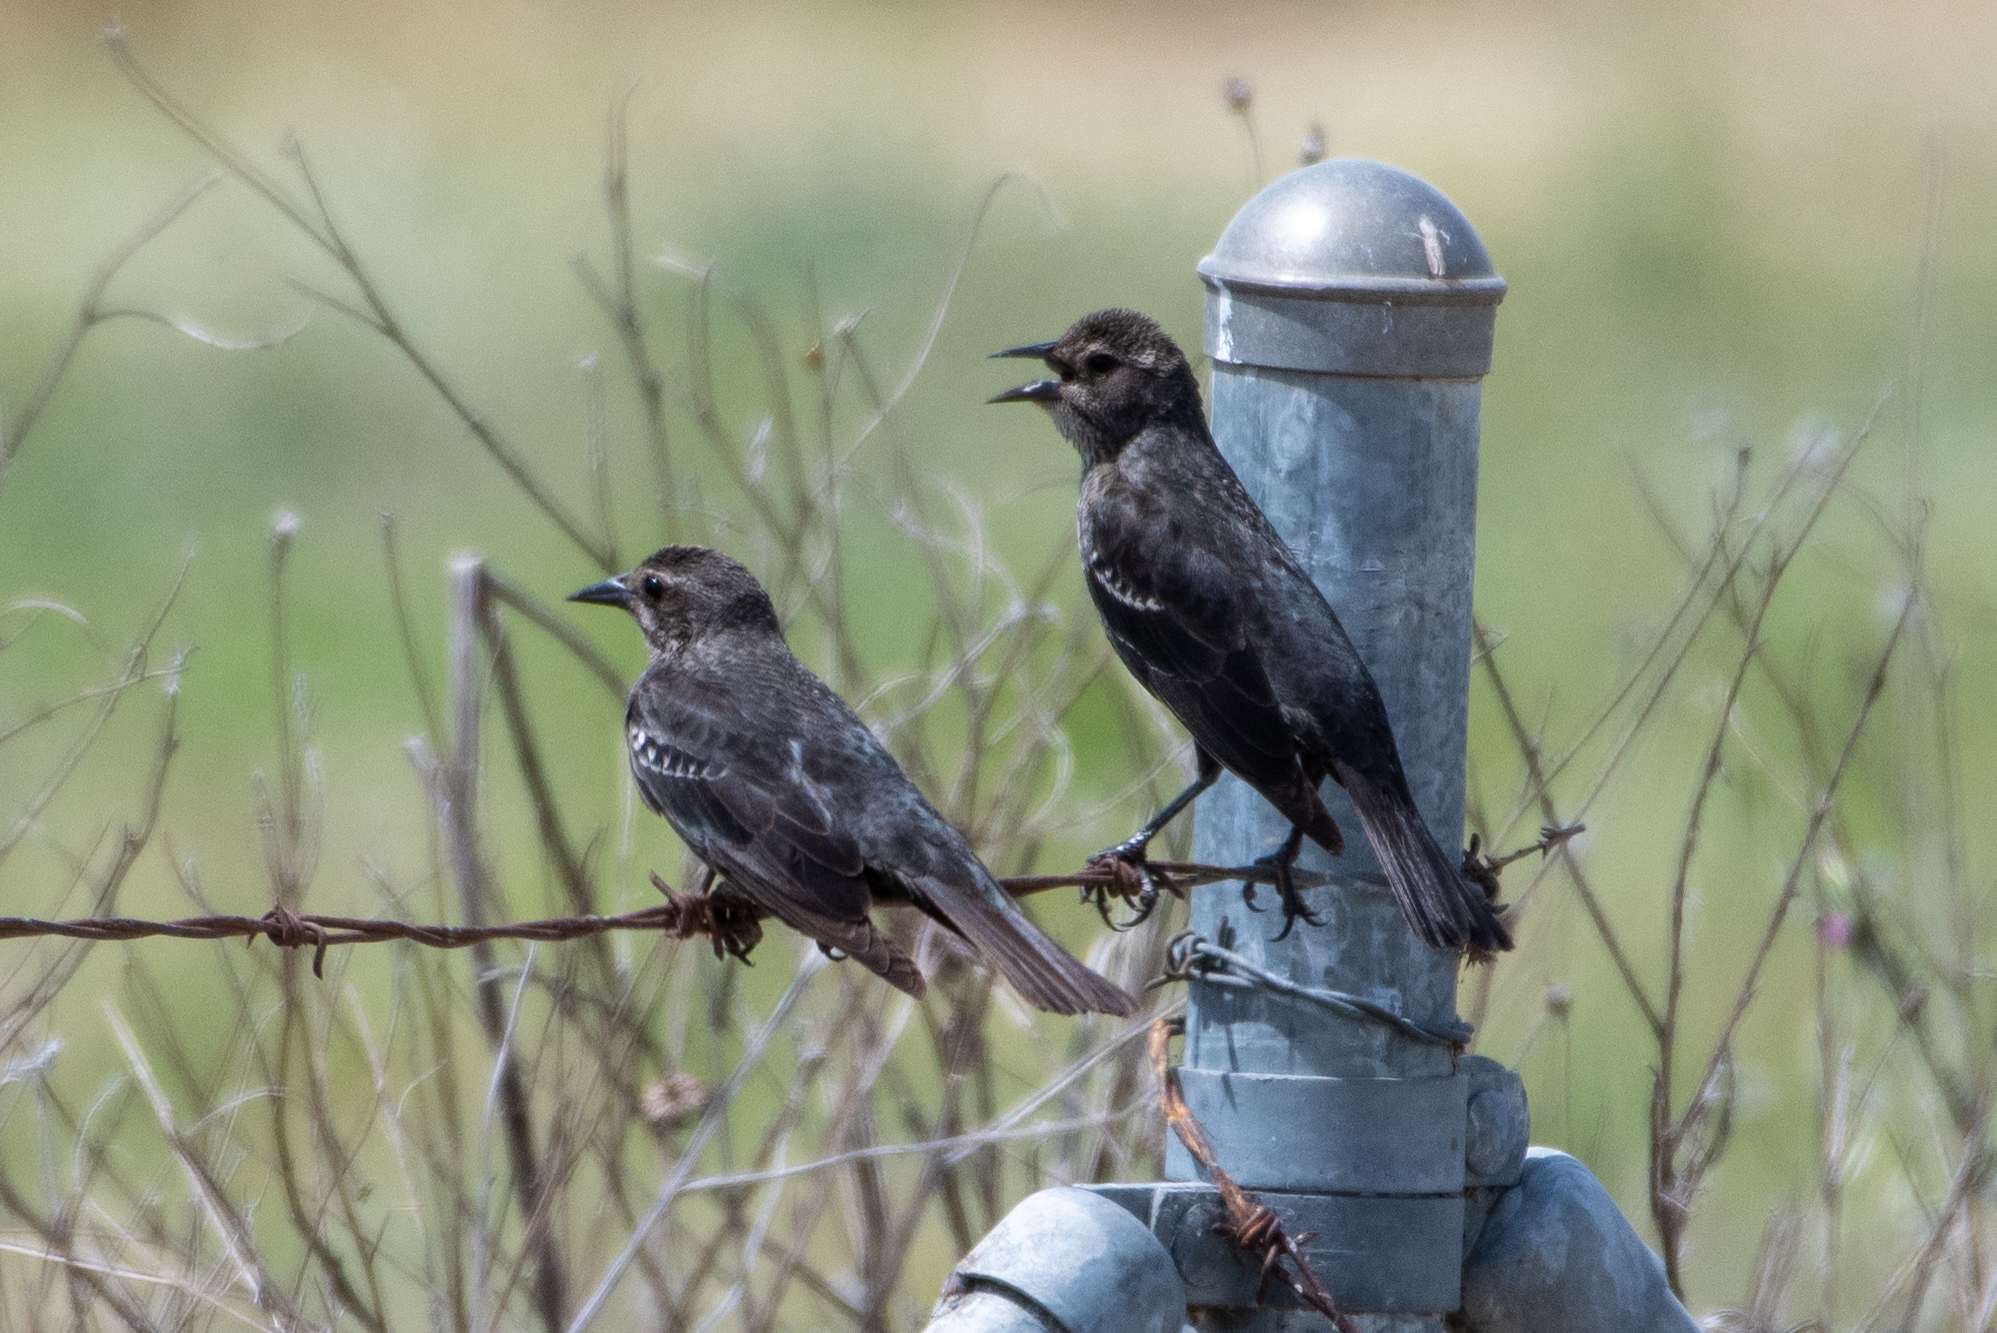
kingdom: Animalia
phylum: Chordata
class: Aves
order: Passeriformes
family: Icteridae
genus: Agelaius
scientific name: Agelaius tricolor
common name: Tricolored blackbird
